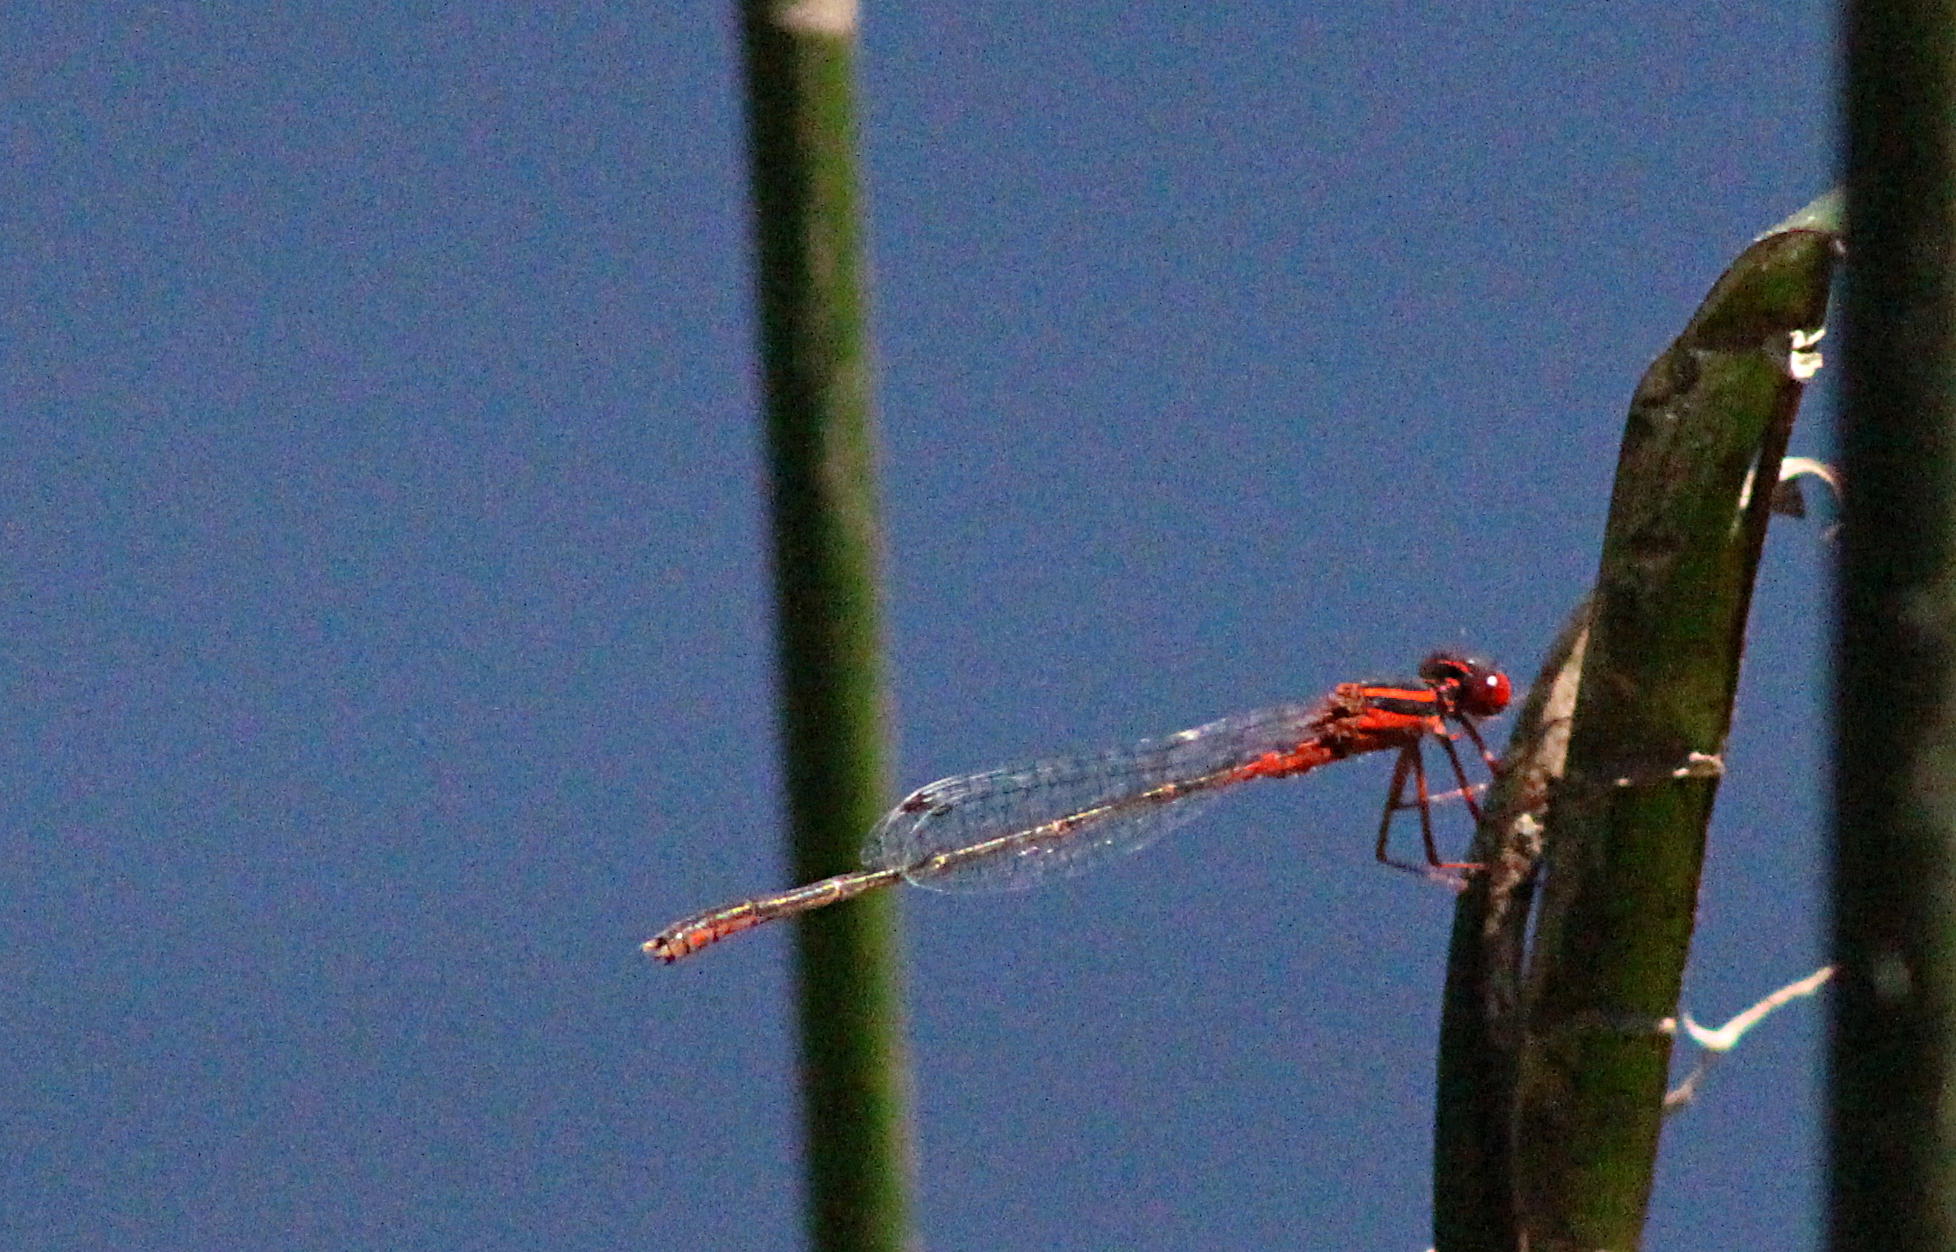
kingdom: Animalia
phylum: Arthropoda
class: Insecta
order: Odonata
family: Coenagrionidae
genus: Enallagma
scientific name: Enallagma pictum
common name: Scarlet bluet
